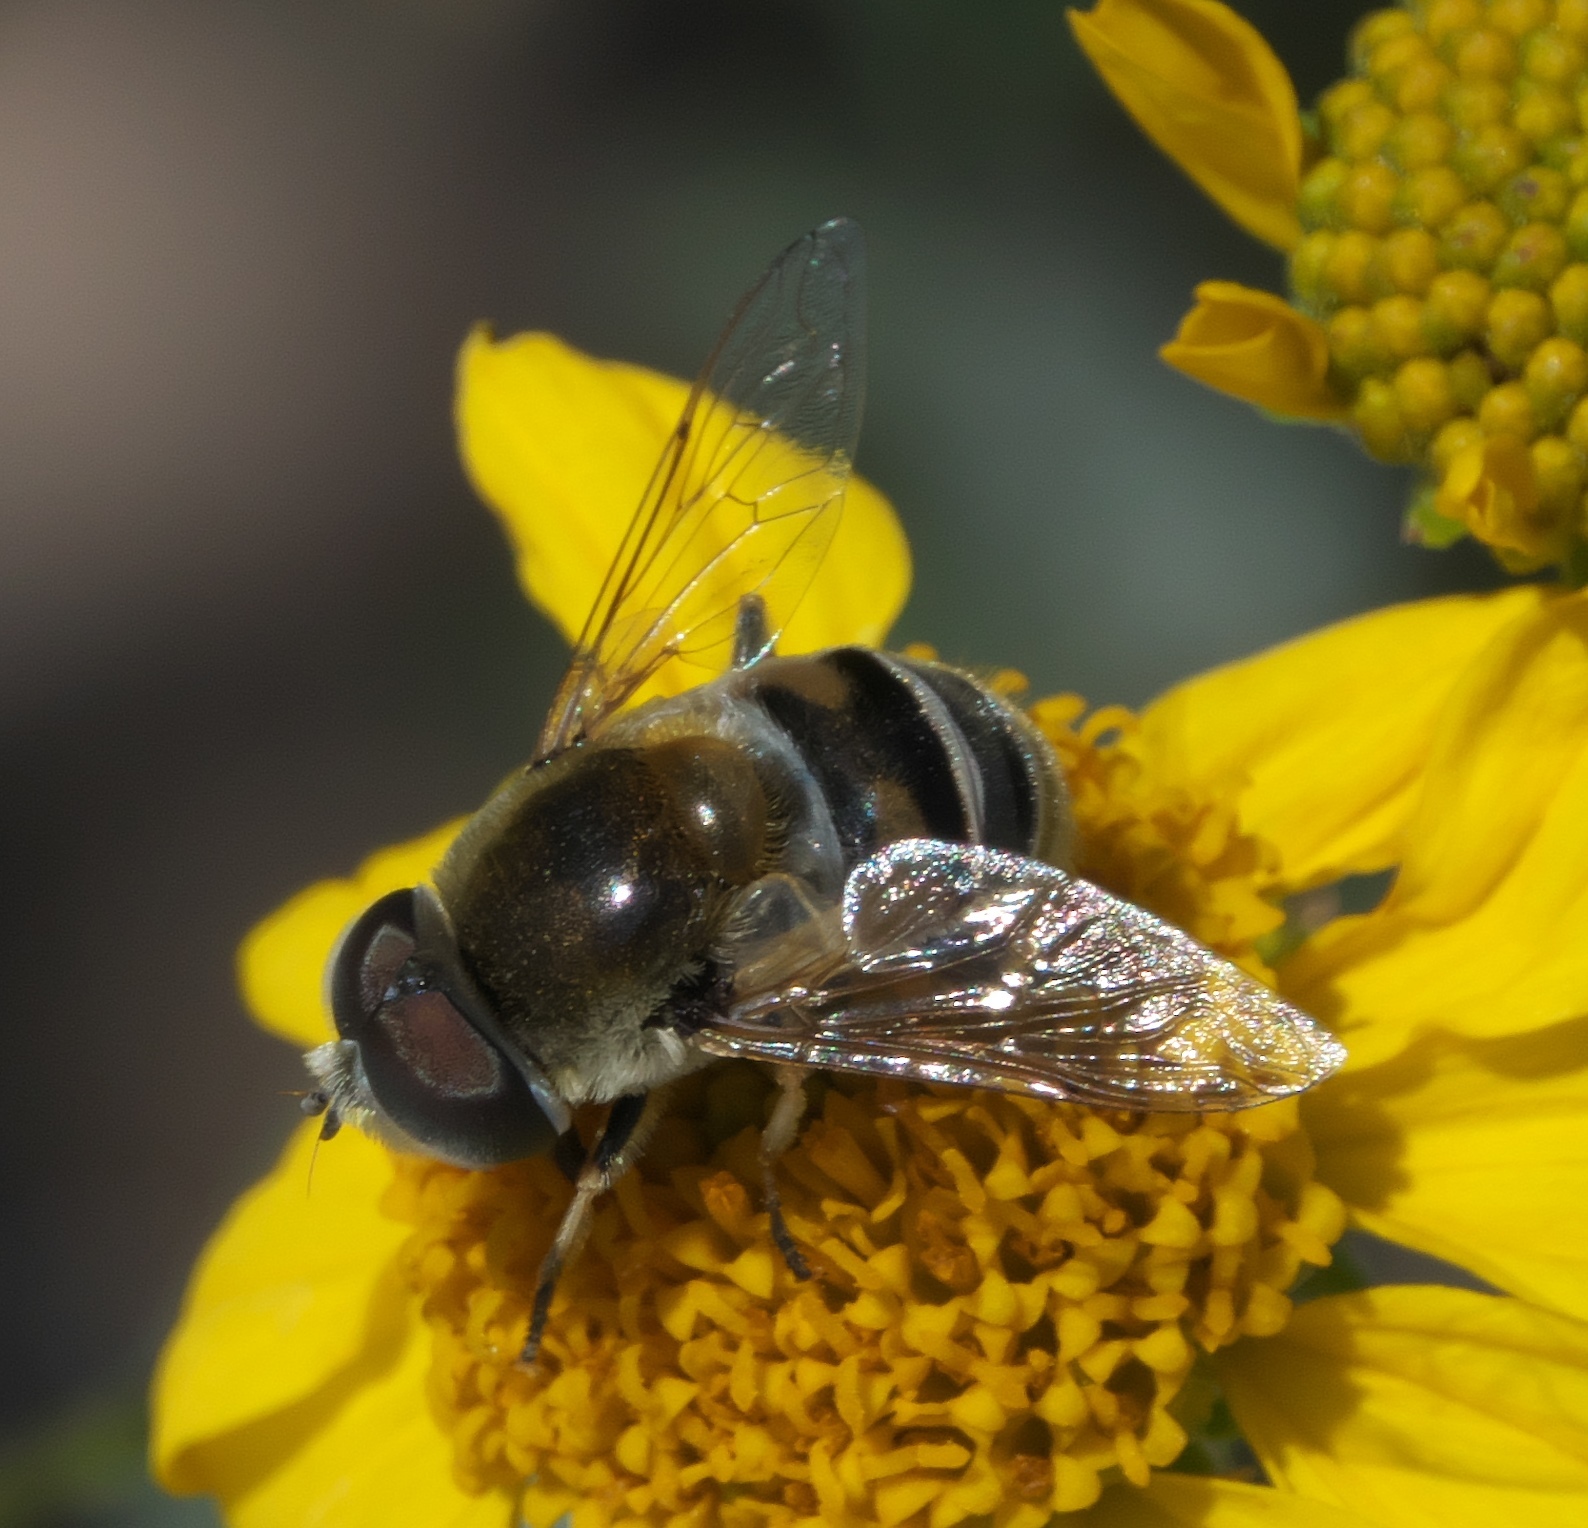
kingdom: Animalia
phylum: Arthropoda
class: Insecta
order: Diptera
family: Syrphidae
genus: Eristalis
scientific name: Eristalis stipator
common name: Yellow-shouldered drone fly
